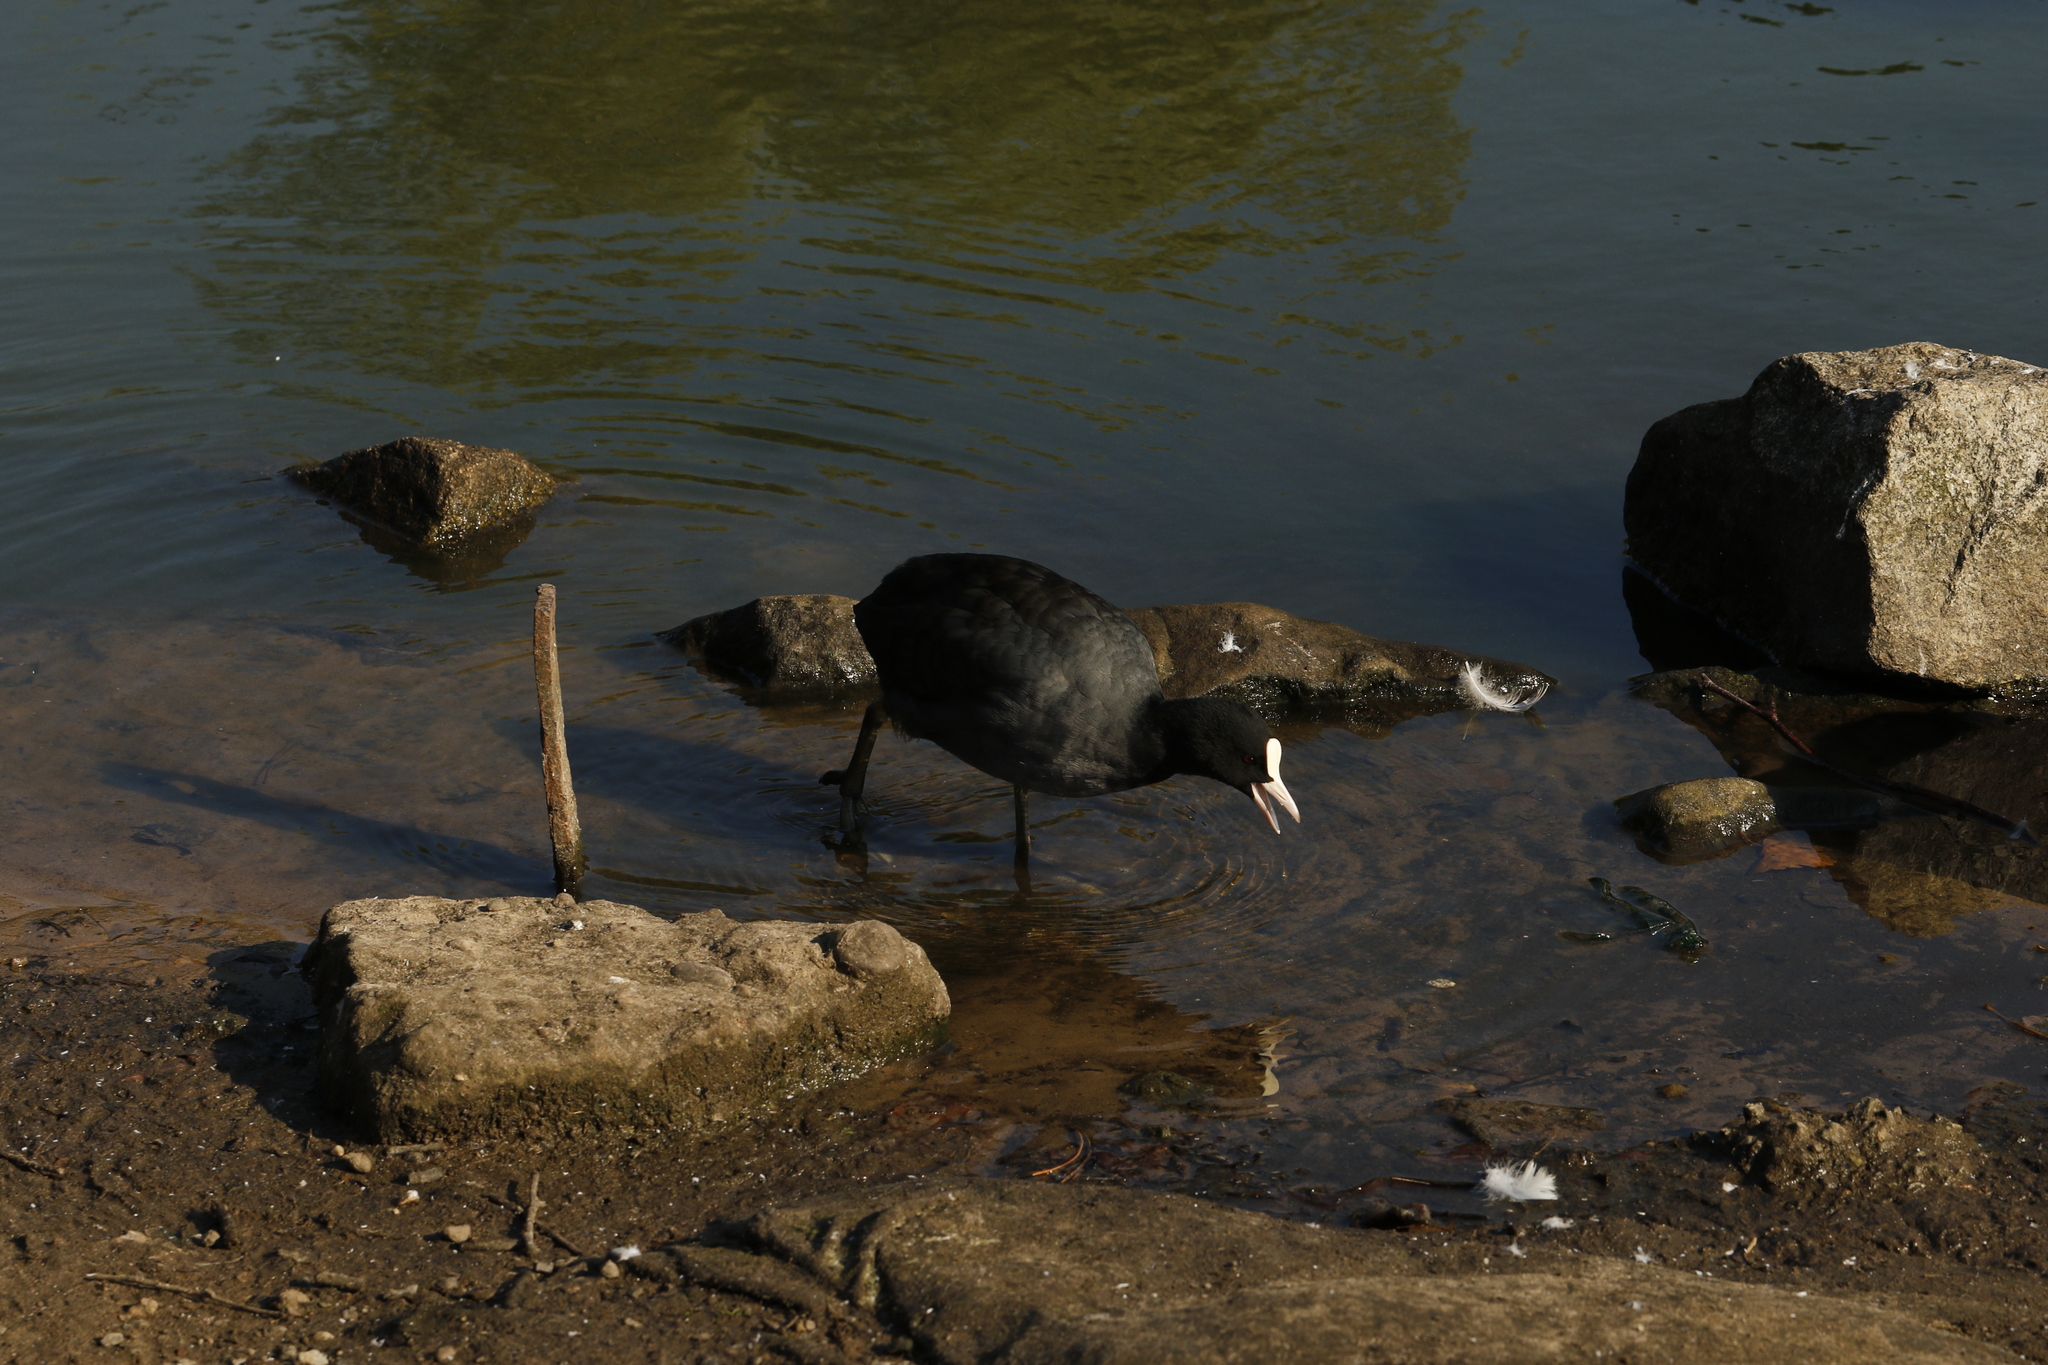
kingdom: Animalia
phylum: Chordata
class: Aves
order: Gruiformes
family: Rallidae
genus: Fulica
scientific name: Fulica atra
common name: Eurasian coot
